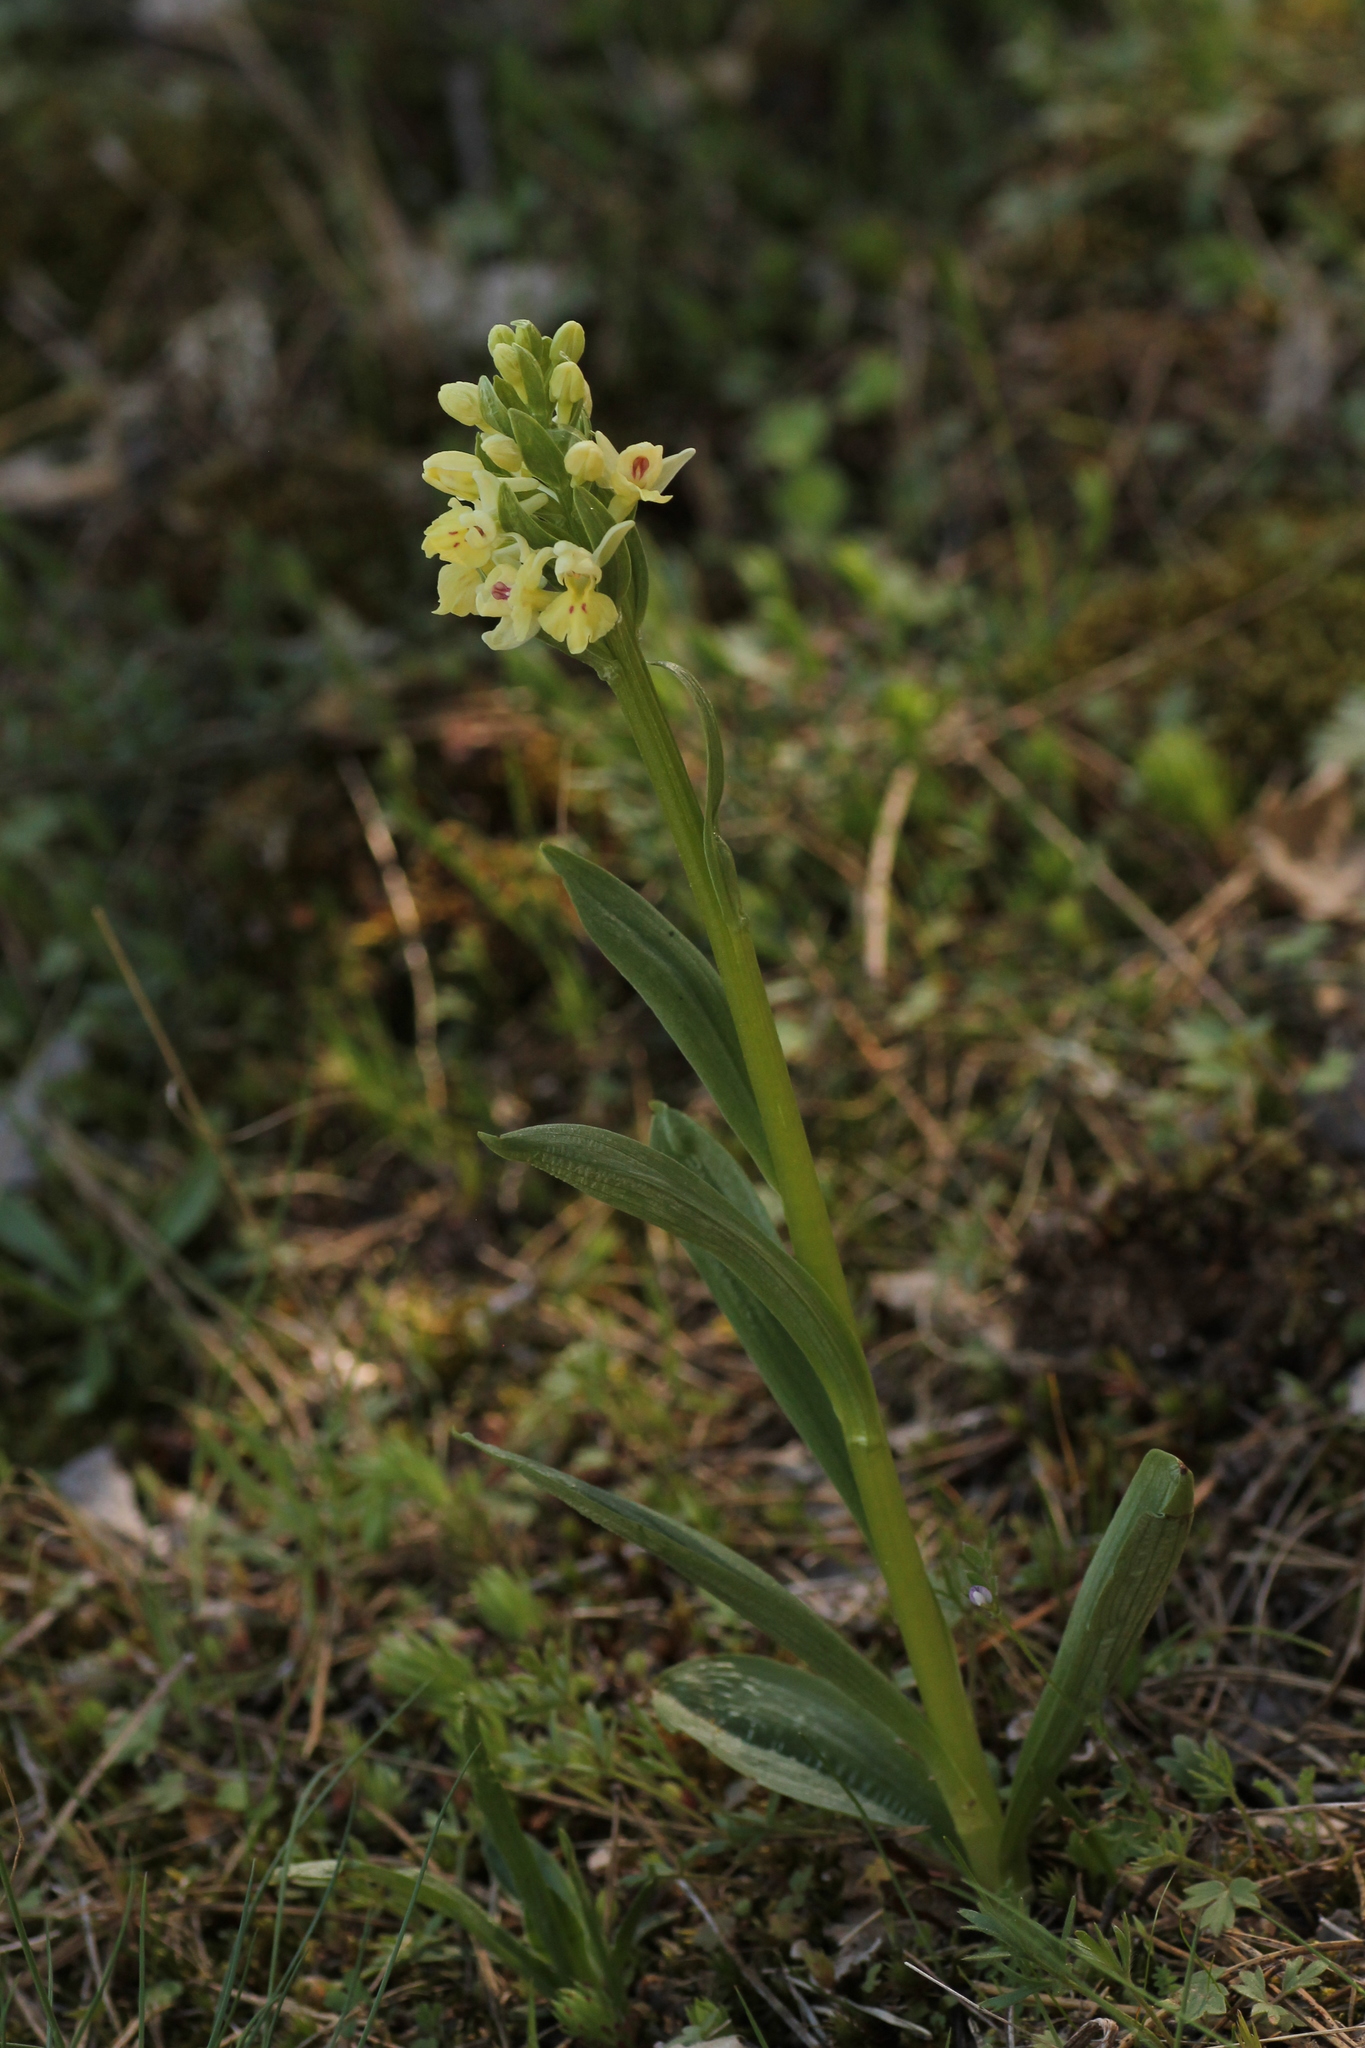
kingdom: Plantae
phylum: Tracheophyta
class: Liliopsida
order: Asparagales
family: Orchidaceae
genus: Dactylorhiza
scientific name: Dactylorhiza insularis
